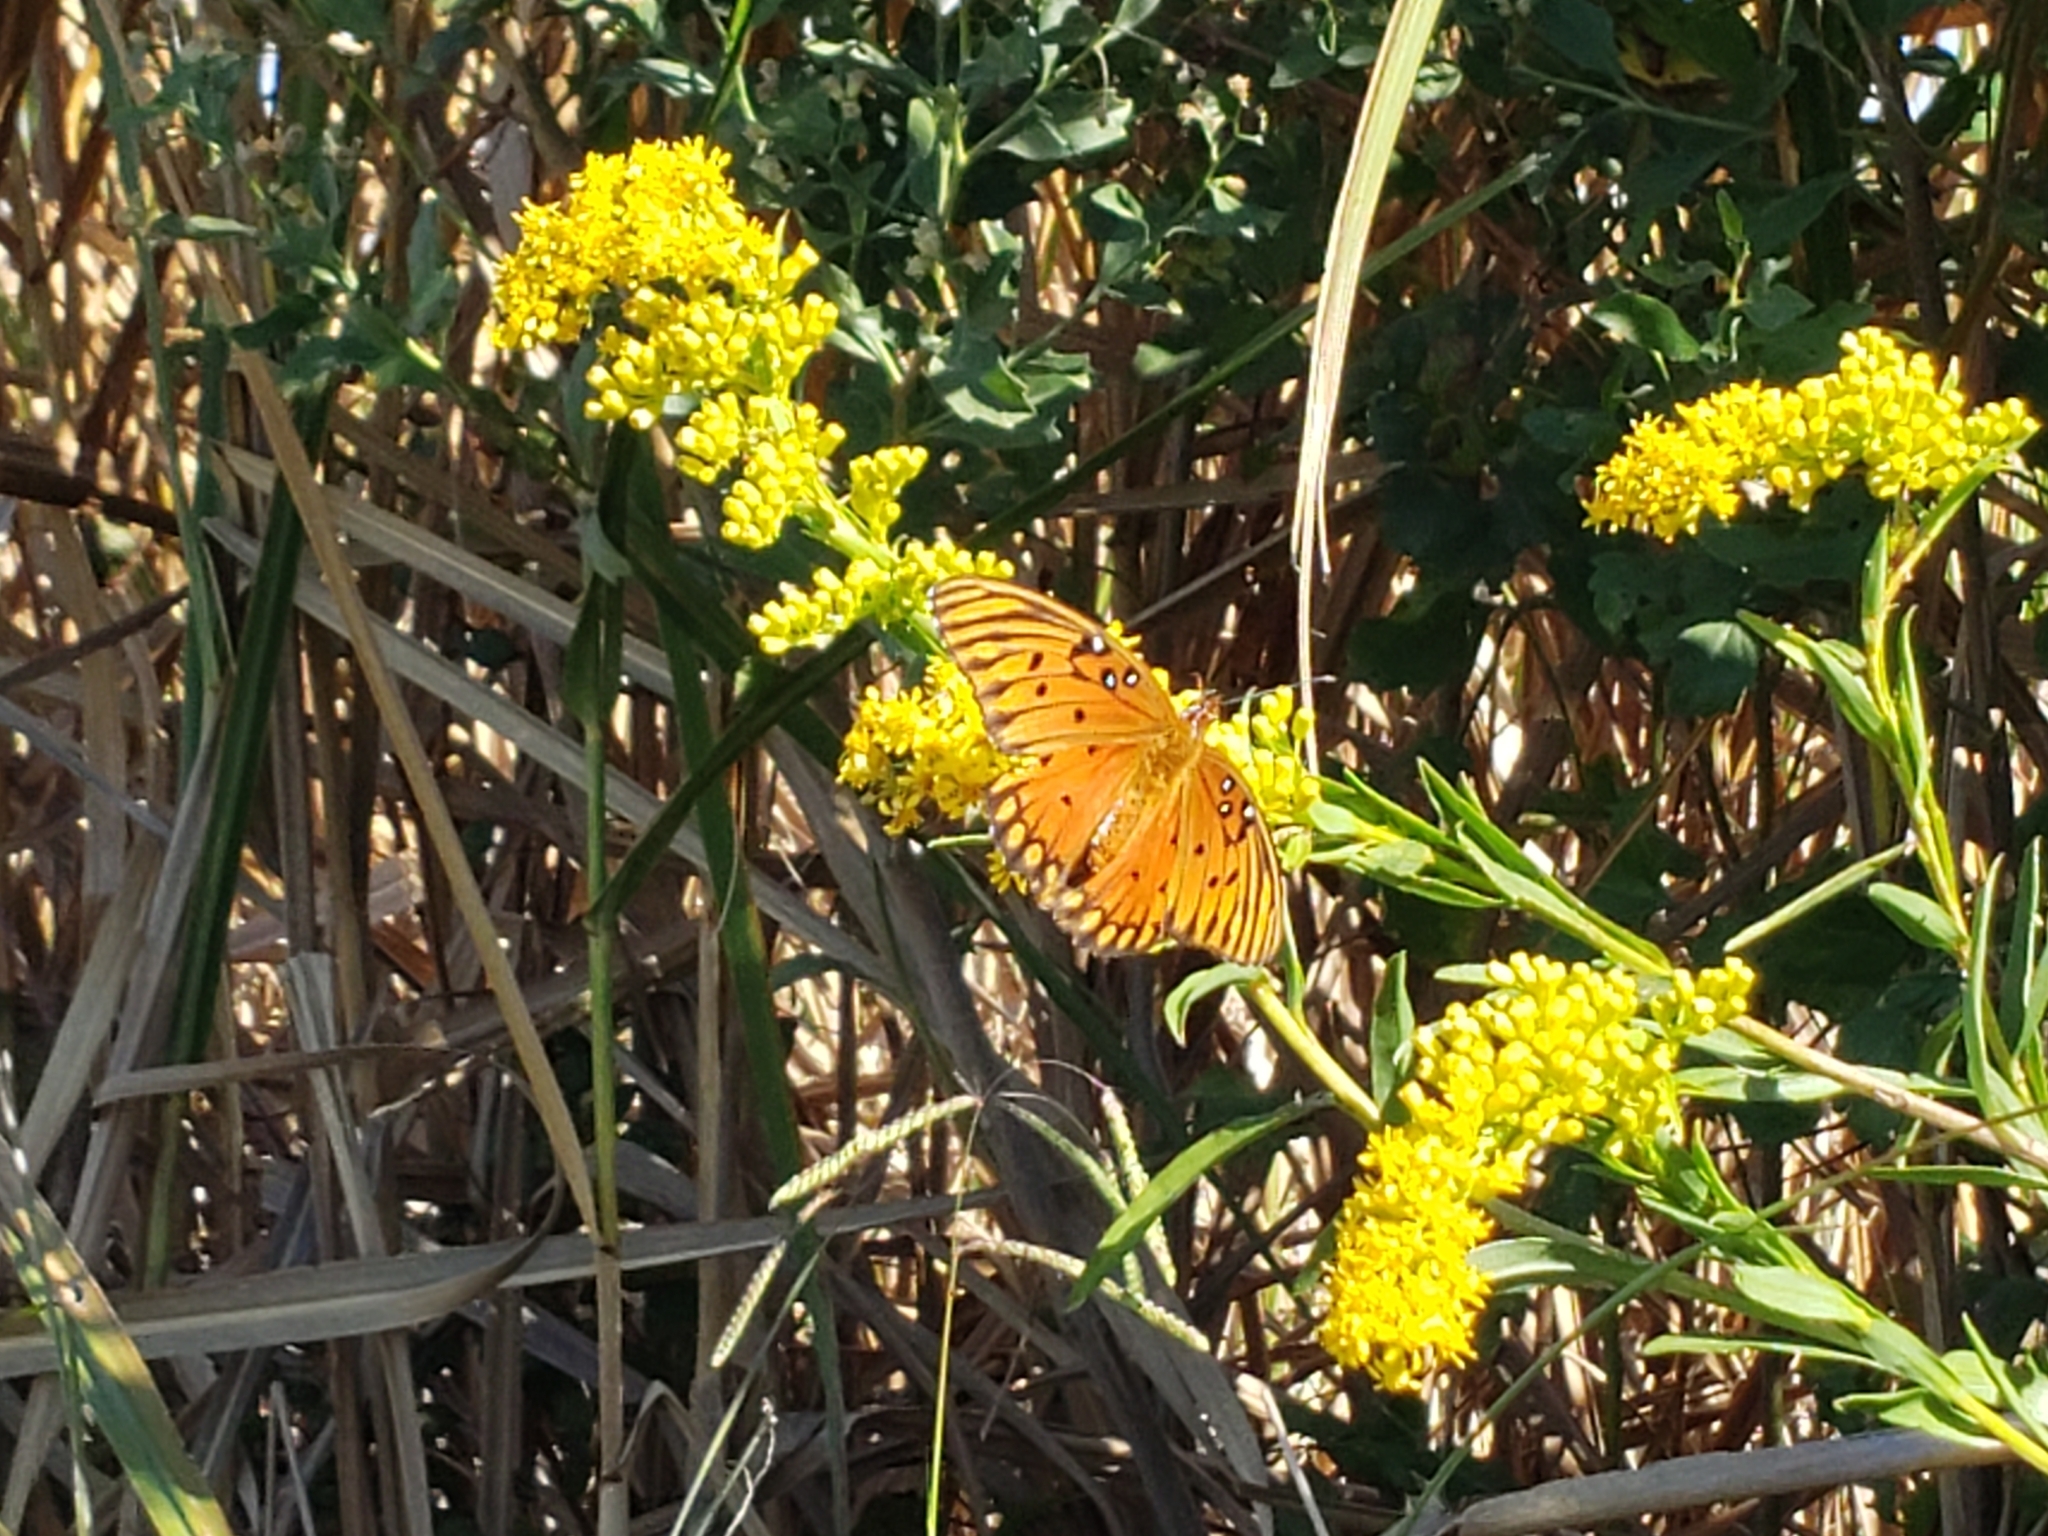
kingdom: Animalia
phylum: Arthropoda
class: Insecta
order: Lepidoptera
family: Nymphalidae
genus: Dione
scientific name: Dione vanillae
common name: Gulf fritillary
